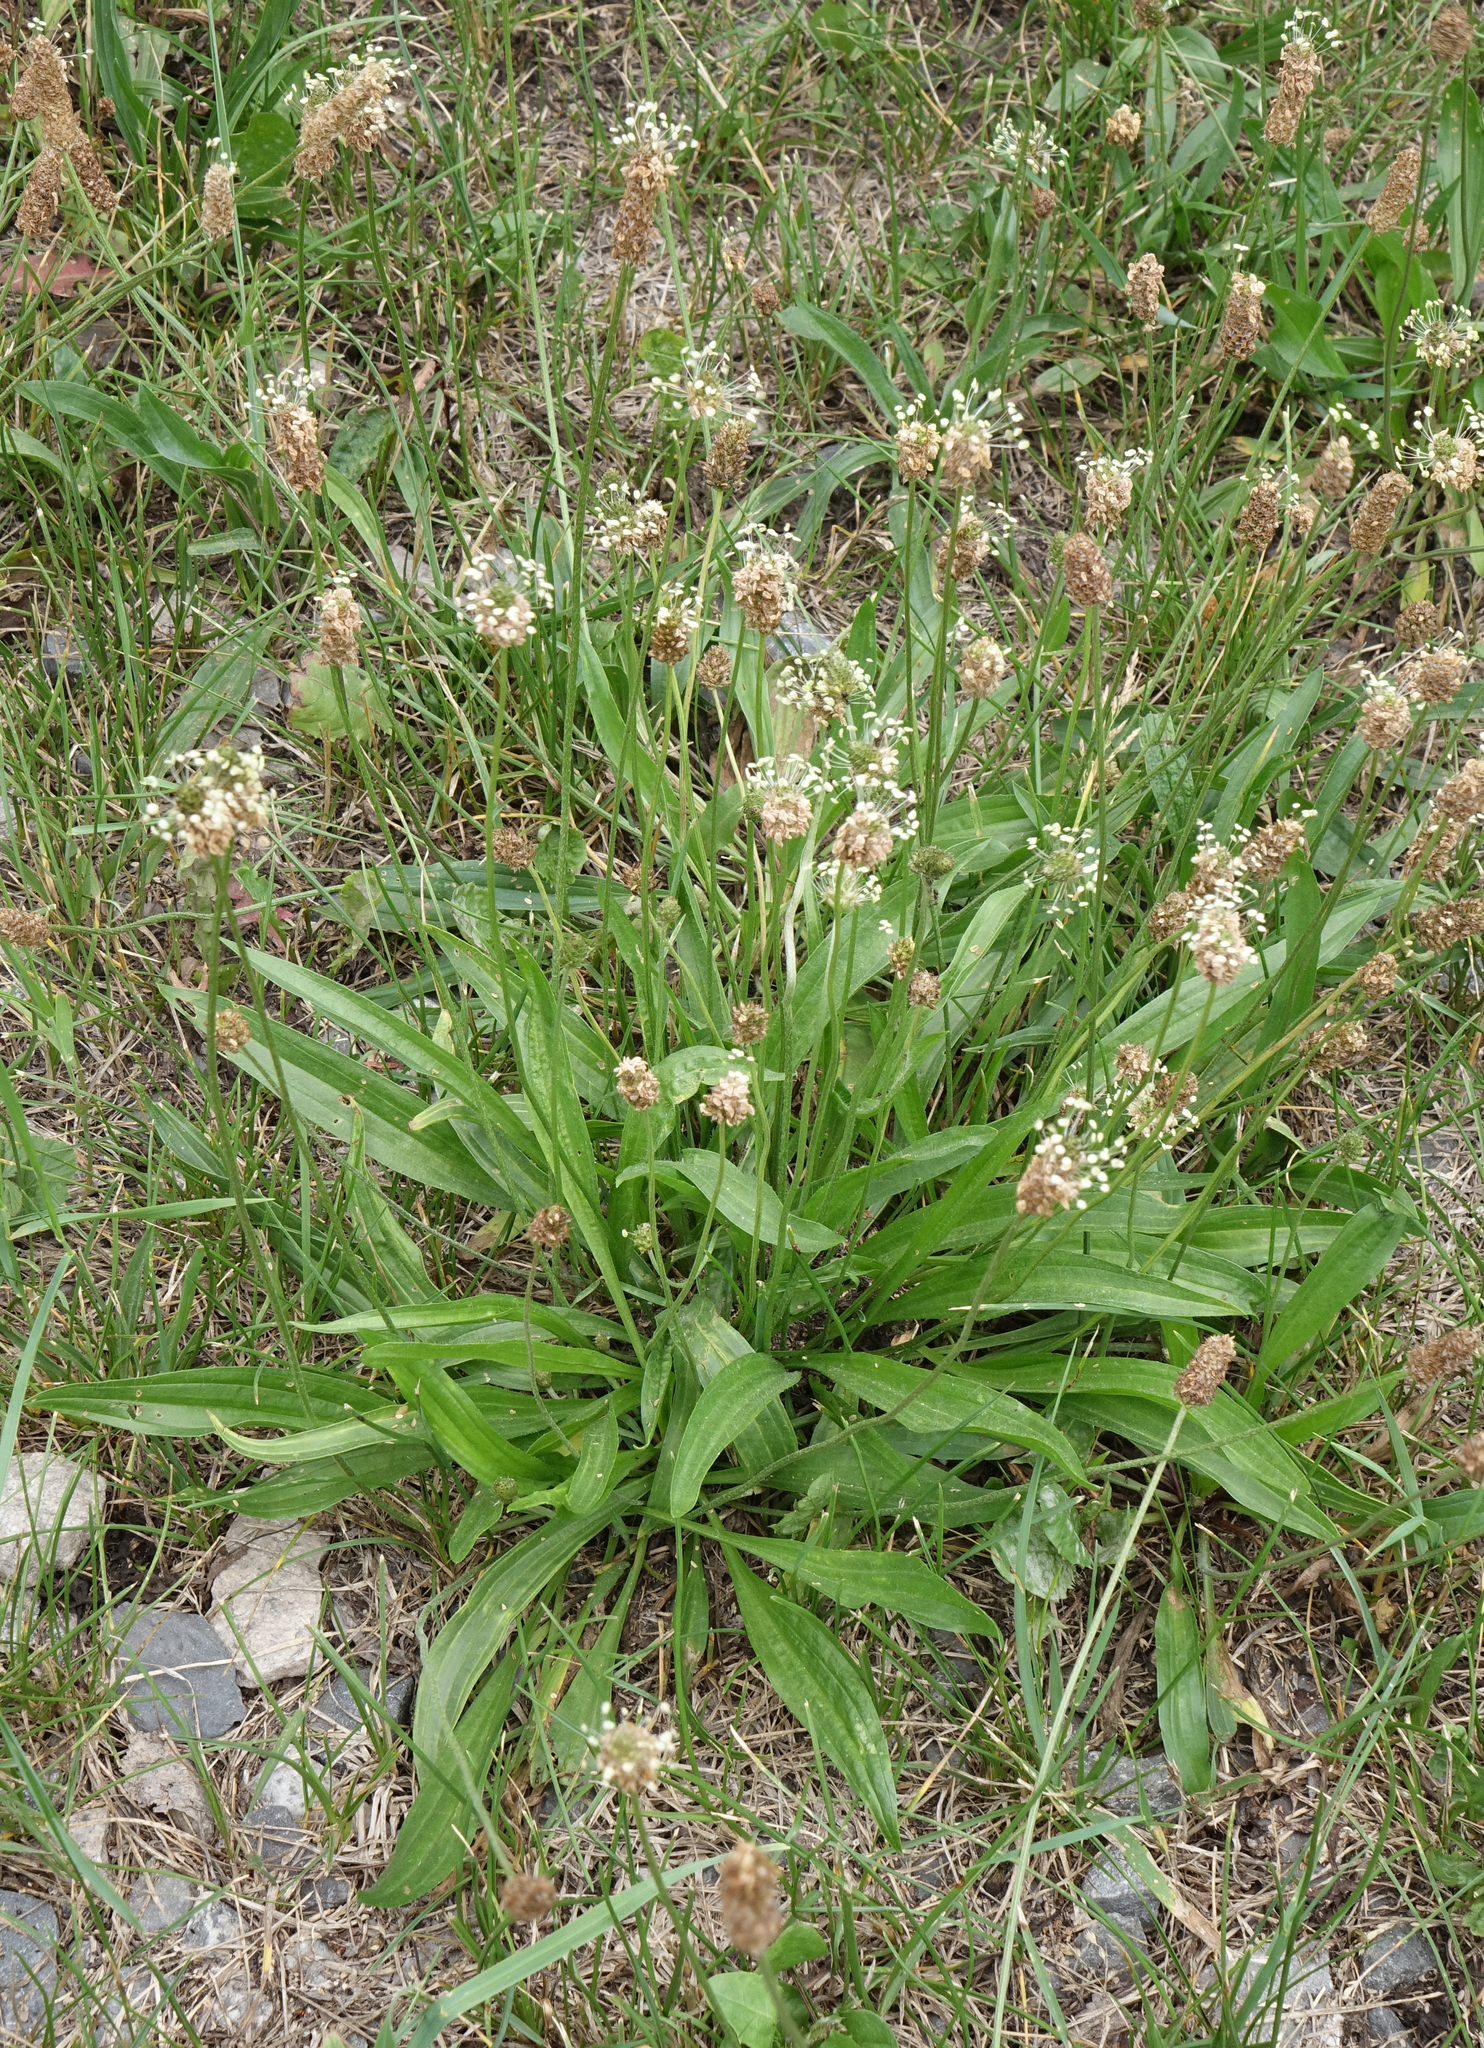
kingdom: Plantae
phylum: Tracheophyta
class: Magnoliopsida
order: Lamiales
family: Plantaginaceae
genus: Plantago
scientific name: Plantago lanceolata
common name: Ribwort plantain
